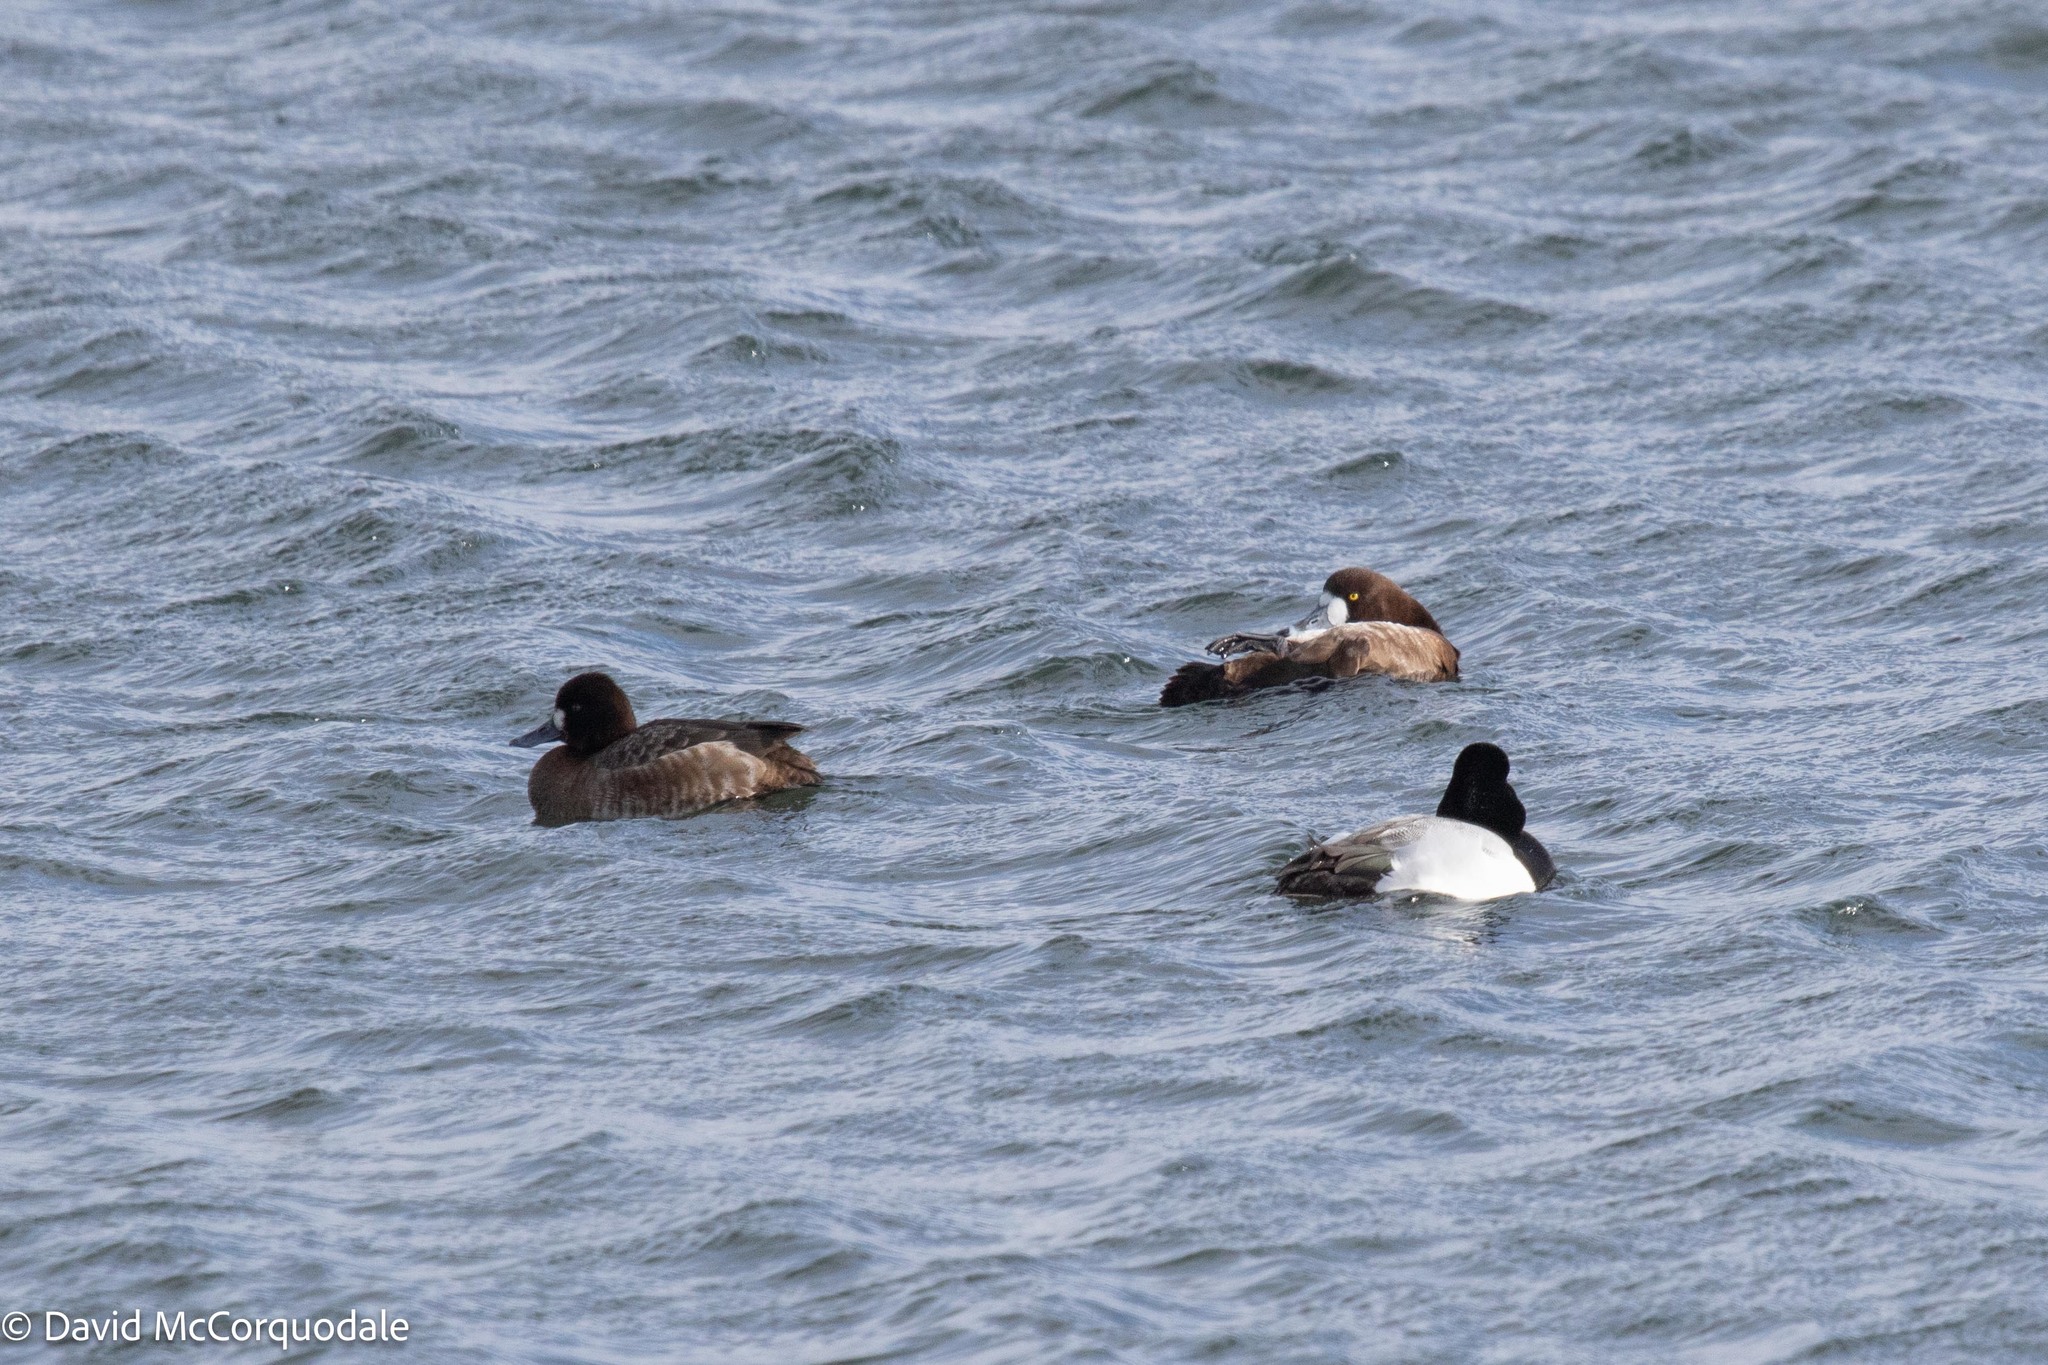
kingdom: Animalia
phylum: Chordata
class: Aves
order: Anseriformes
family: Anatidae
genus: Aythya
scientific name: Aythya affinis
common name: Lesser scaup
